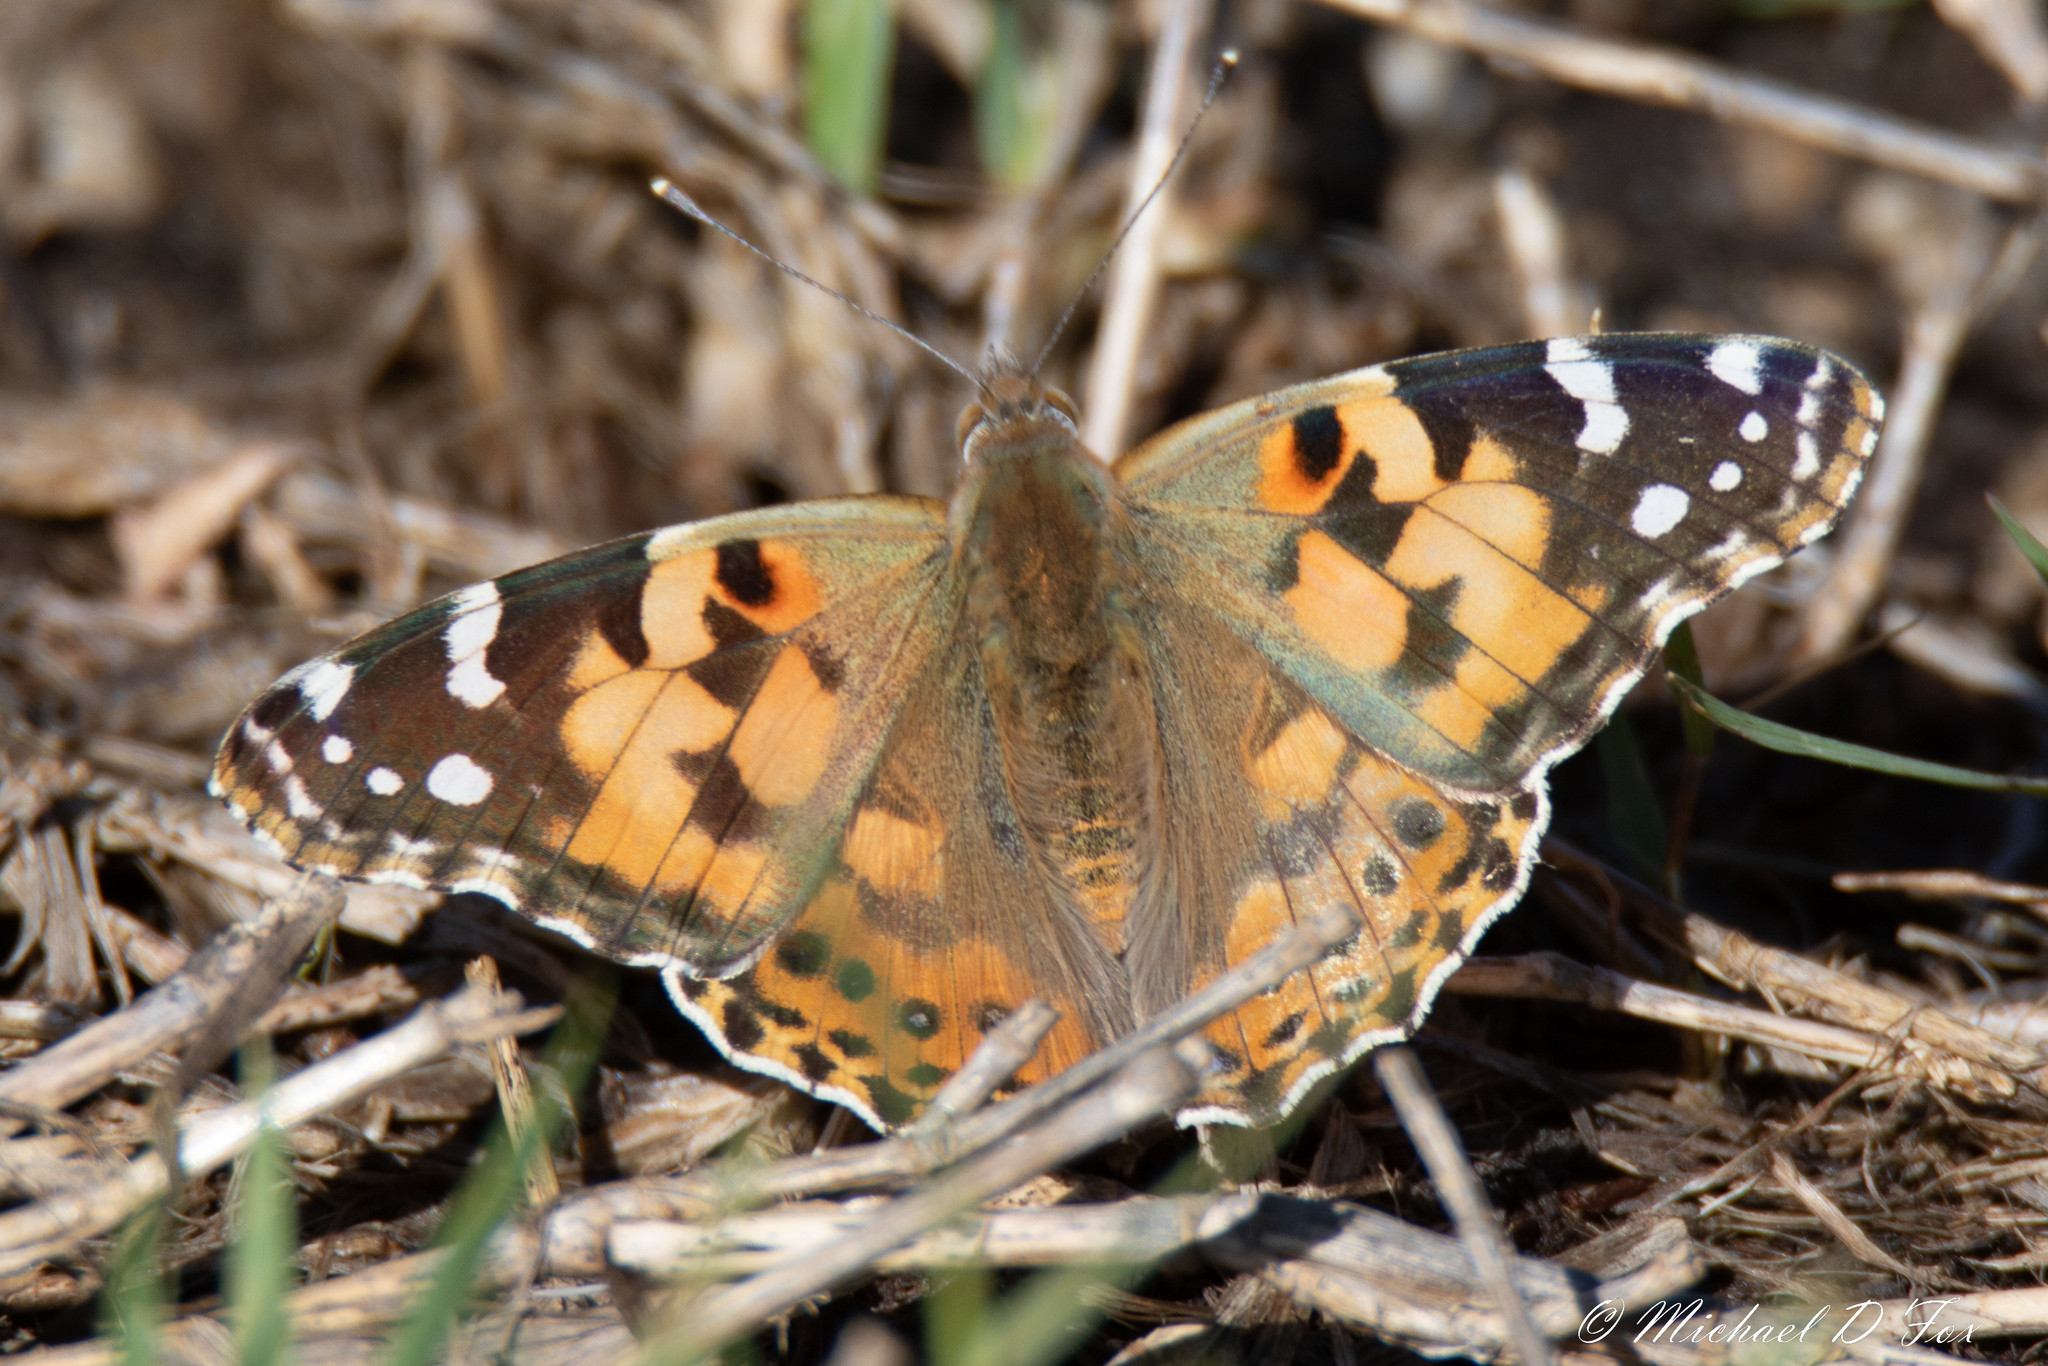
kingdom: Animalia
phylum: Arthropoda
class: Insecta
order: Lepidoptera
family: Nymphalidae
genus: Vanessa
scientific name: Vanessa cardui
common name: Painted lady
